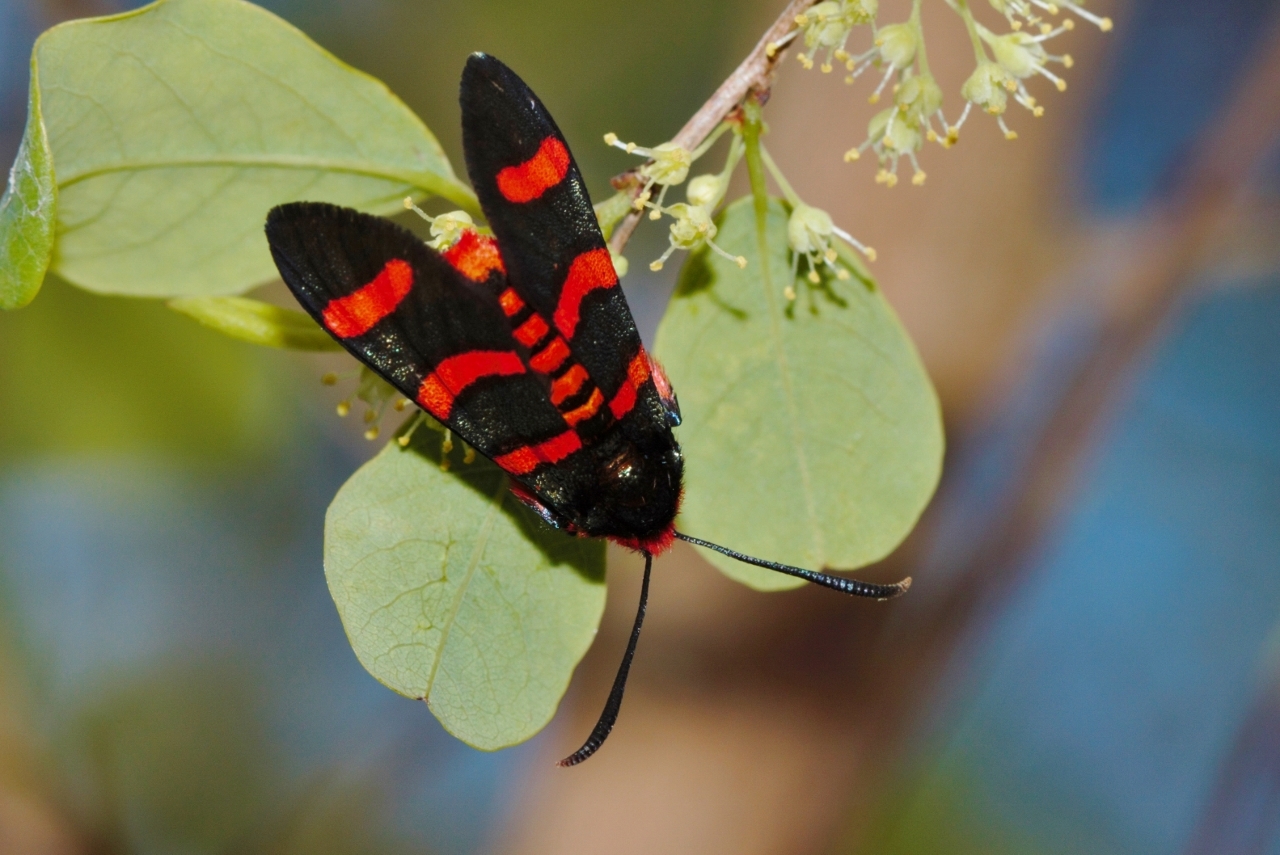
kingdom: Animalia
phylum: Arthropoda
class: Insecta
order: Lepidoptera
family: Thyrididae
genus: Arniocera
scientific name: Arniocera erythropyga
